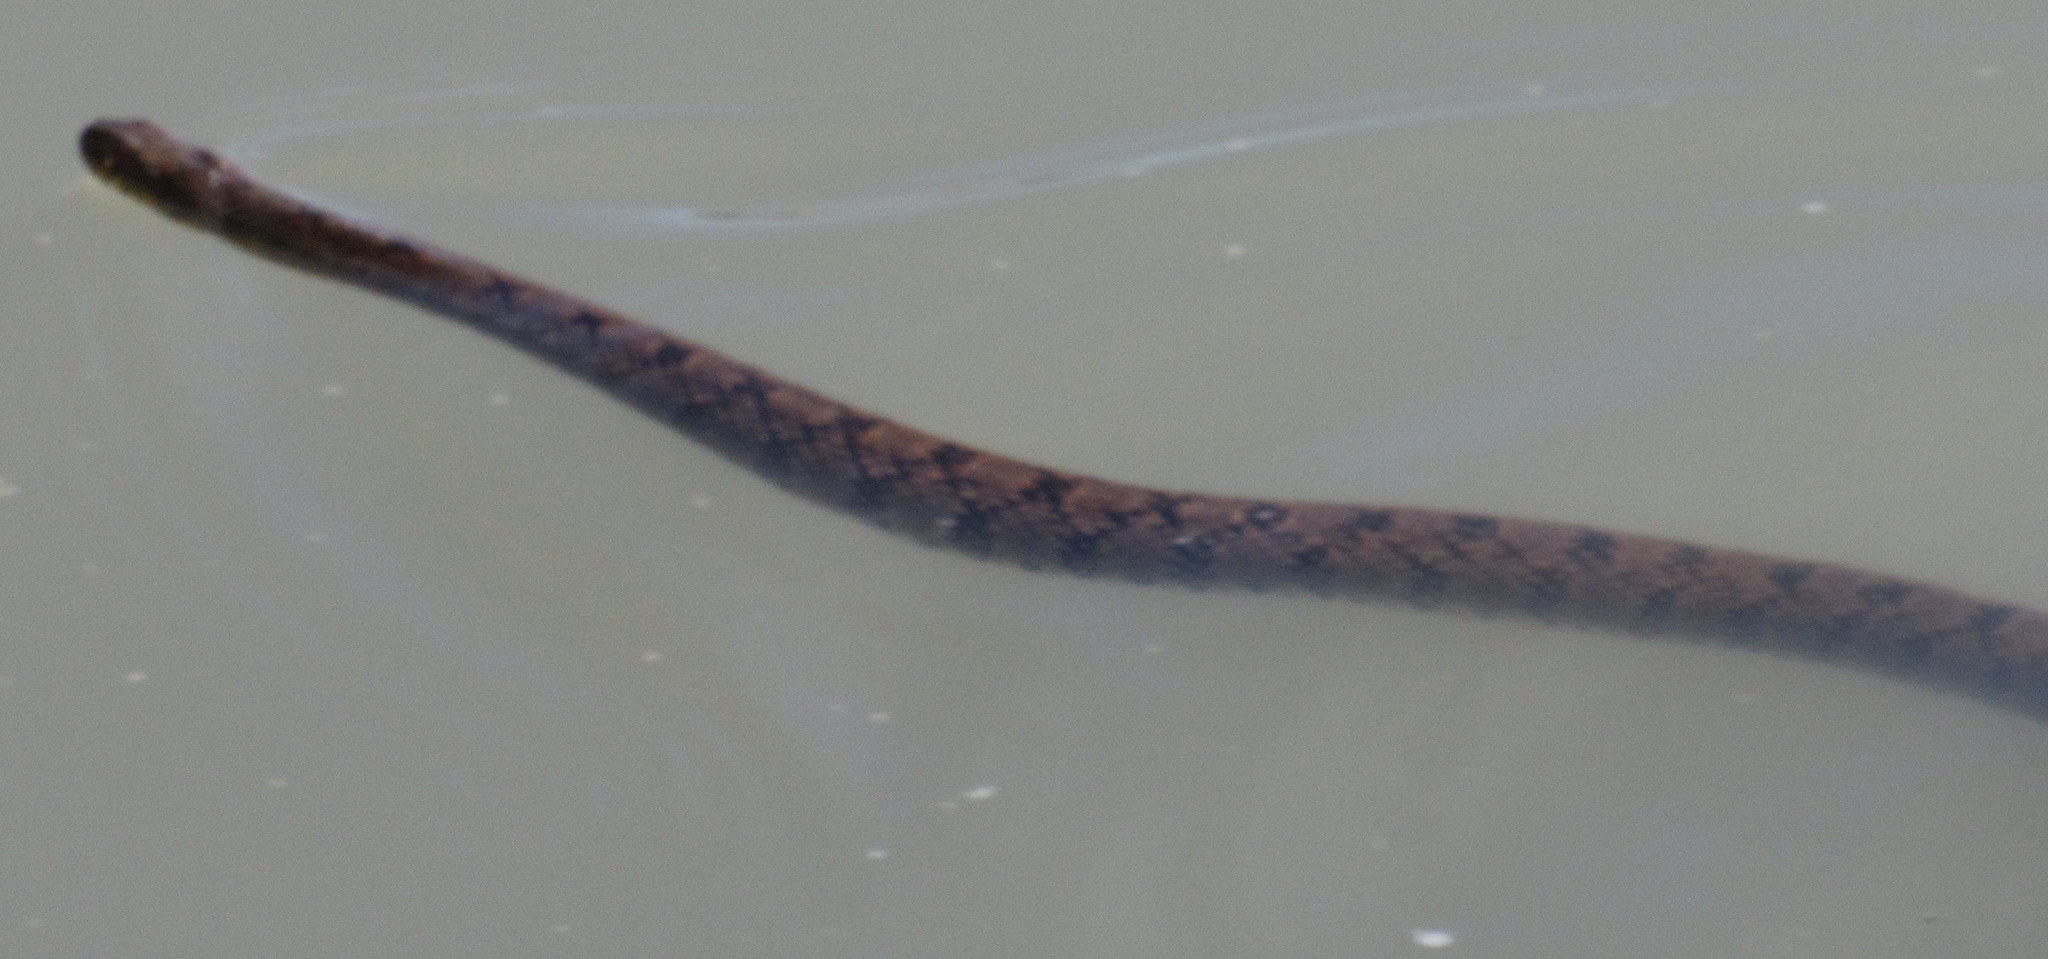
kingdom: Animalia
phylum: Chordata
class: Squamata
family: Colubridae
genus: Nerodia
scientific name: Nerodia rhombifer
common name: Diamondback water snake
